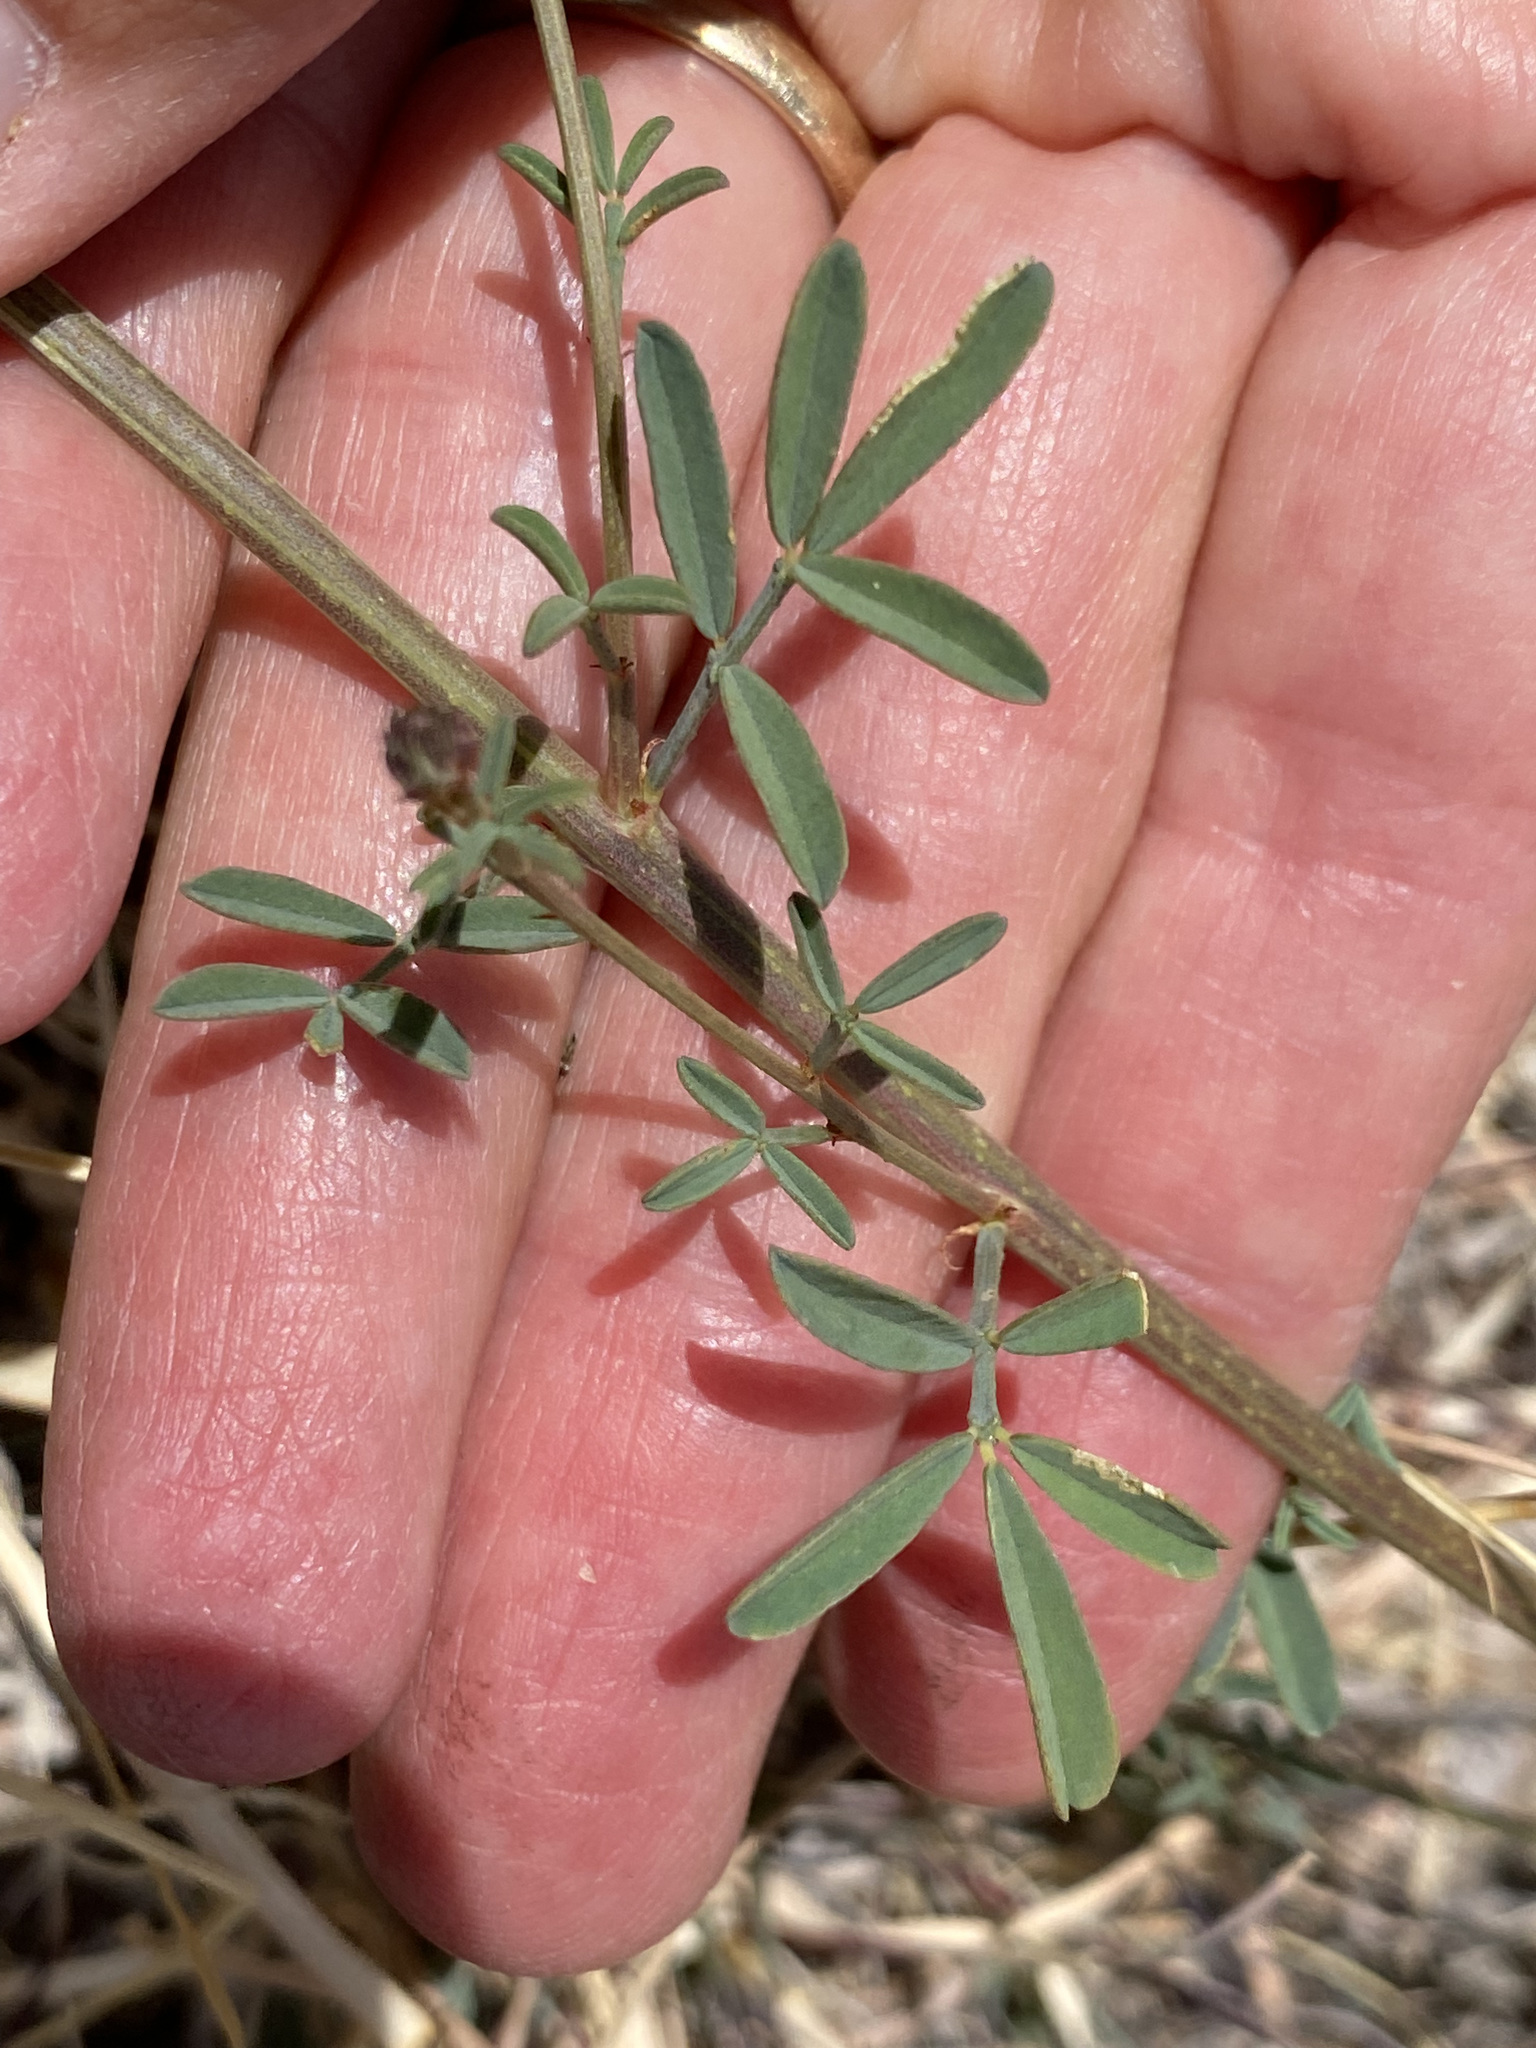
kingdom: Plantae
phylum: Tracheophyta
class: Magnoliopsida
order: Fabales
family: Fabaceae
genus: Dalea
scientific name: Dalea candida
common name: White prairie-clover
